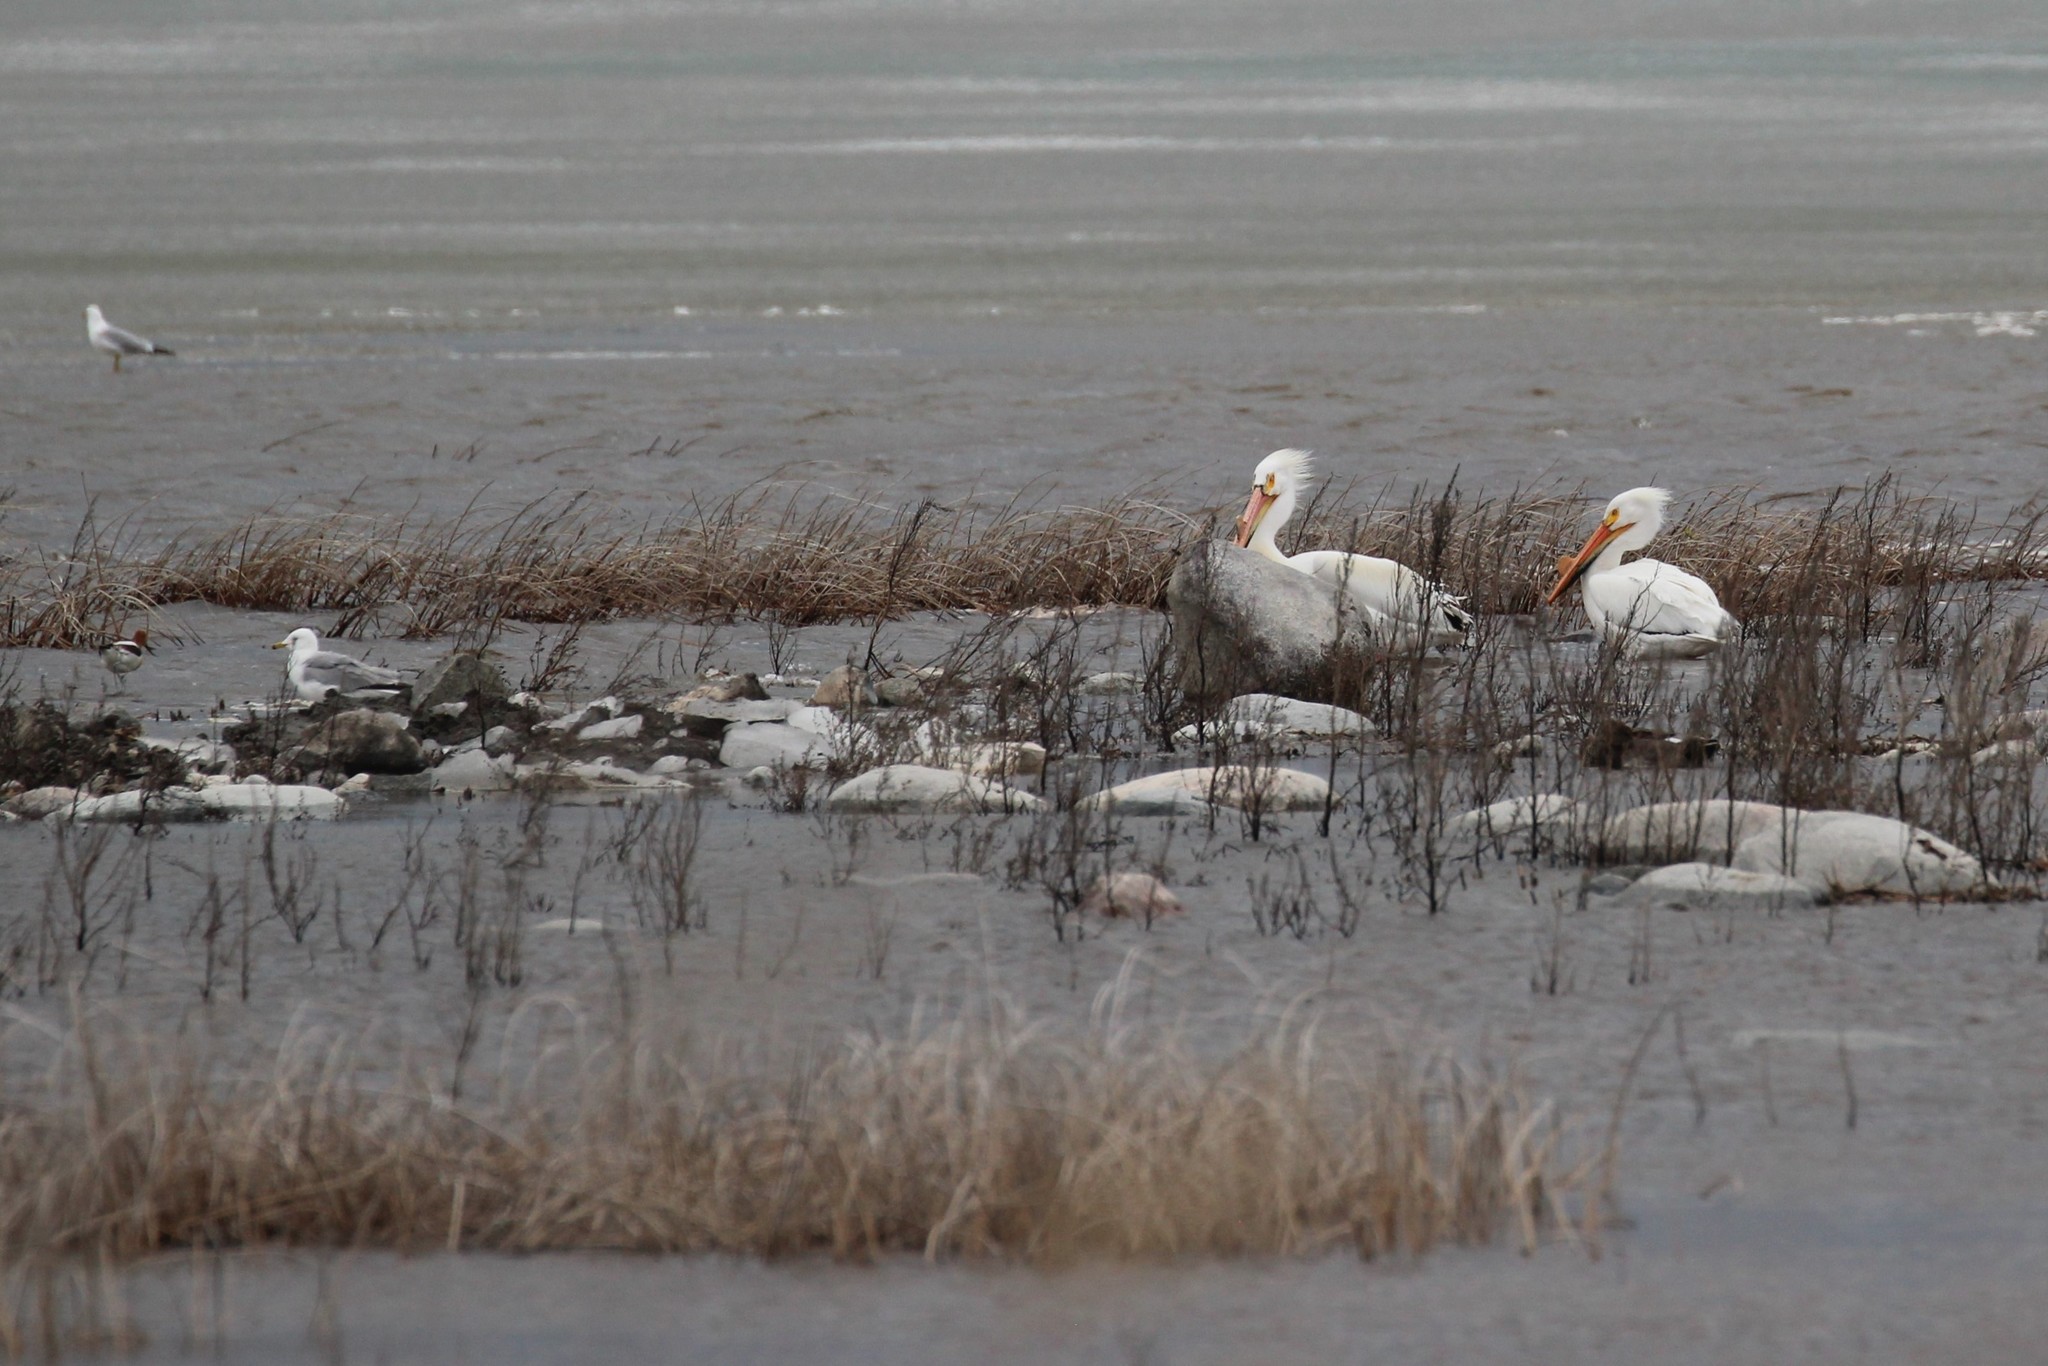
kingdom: Animalia
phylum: Chordata
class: Aves
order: Pelecaniformes
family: Pelecanidae
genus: Pelecanus
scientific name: Pelecanus erythrorhynchos
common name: American white pelican
